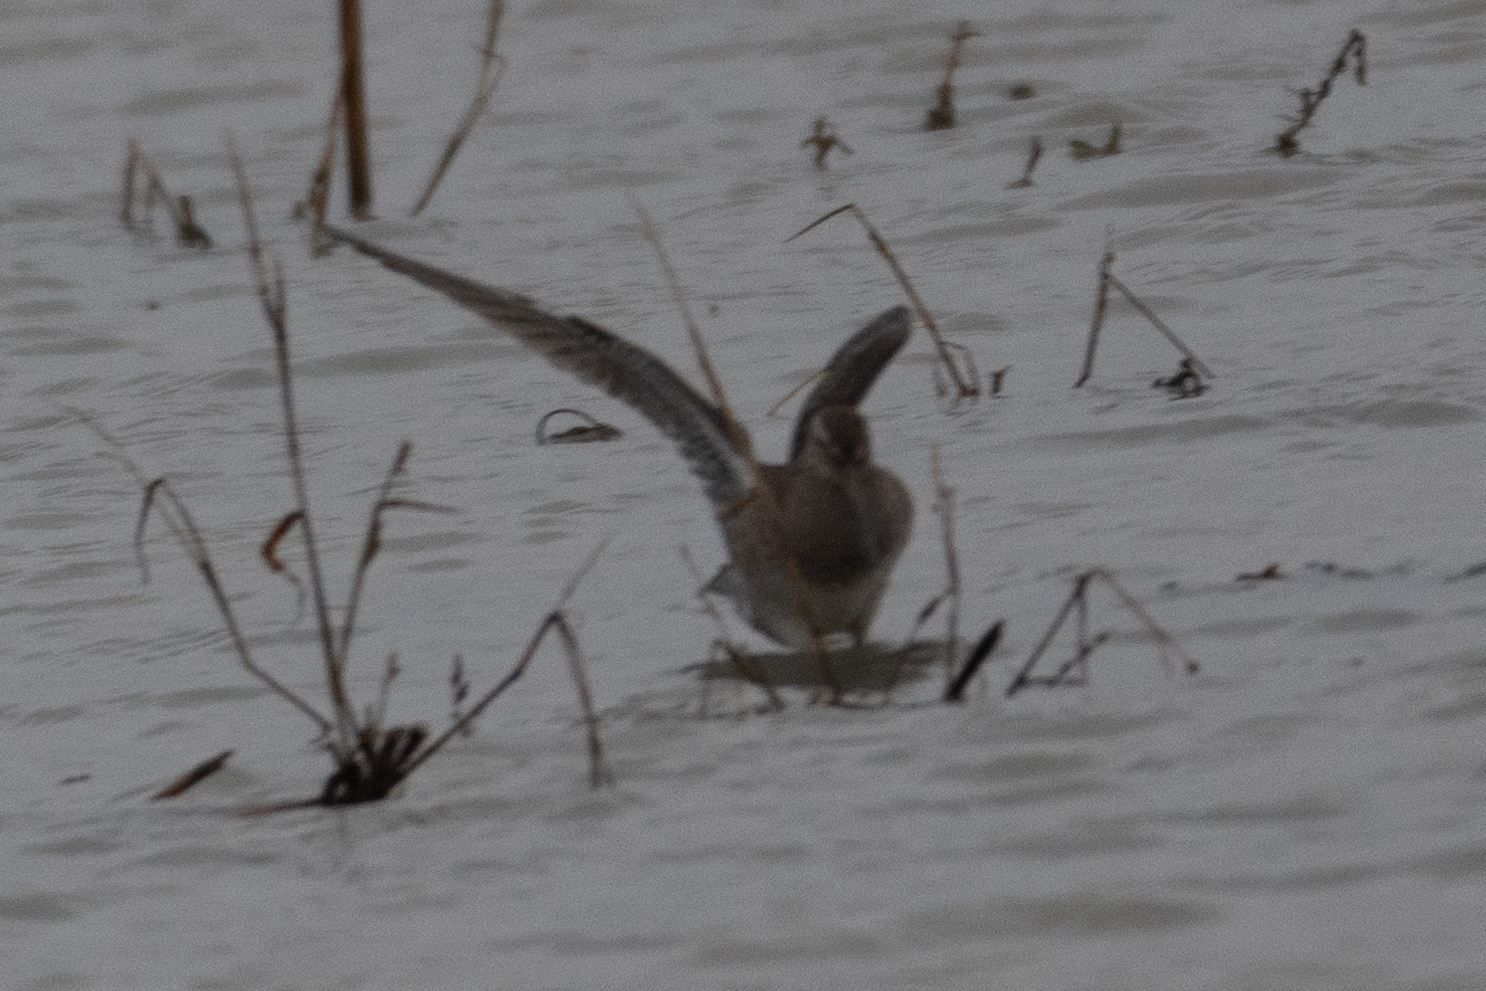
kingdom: Animalia
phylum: Chordata
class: Aves
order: Charadriiformes
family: Scolopacidae
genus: Limnodromus
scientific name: Limnodromus scolopaceus
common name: Long-billed dowitcher
